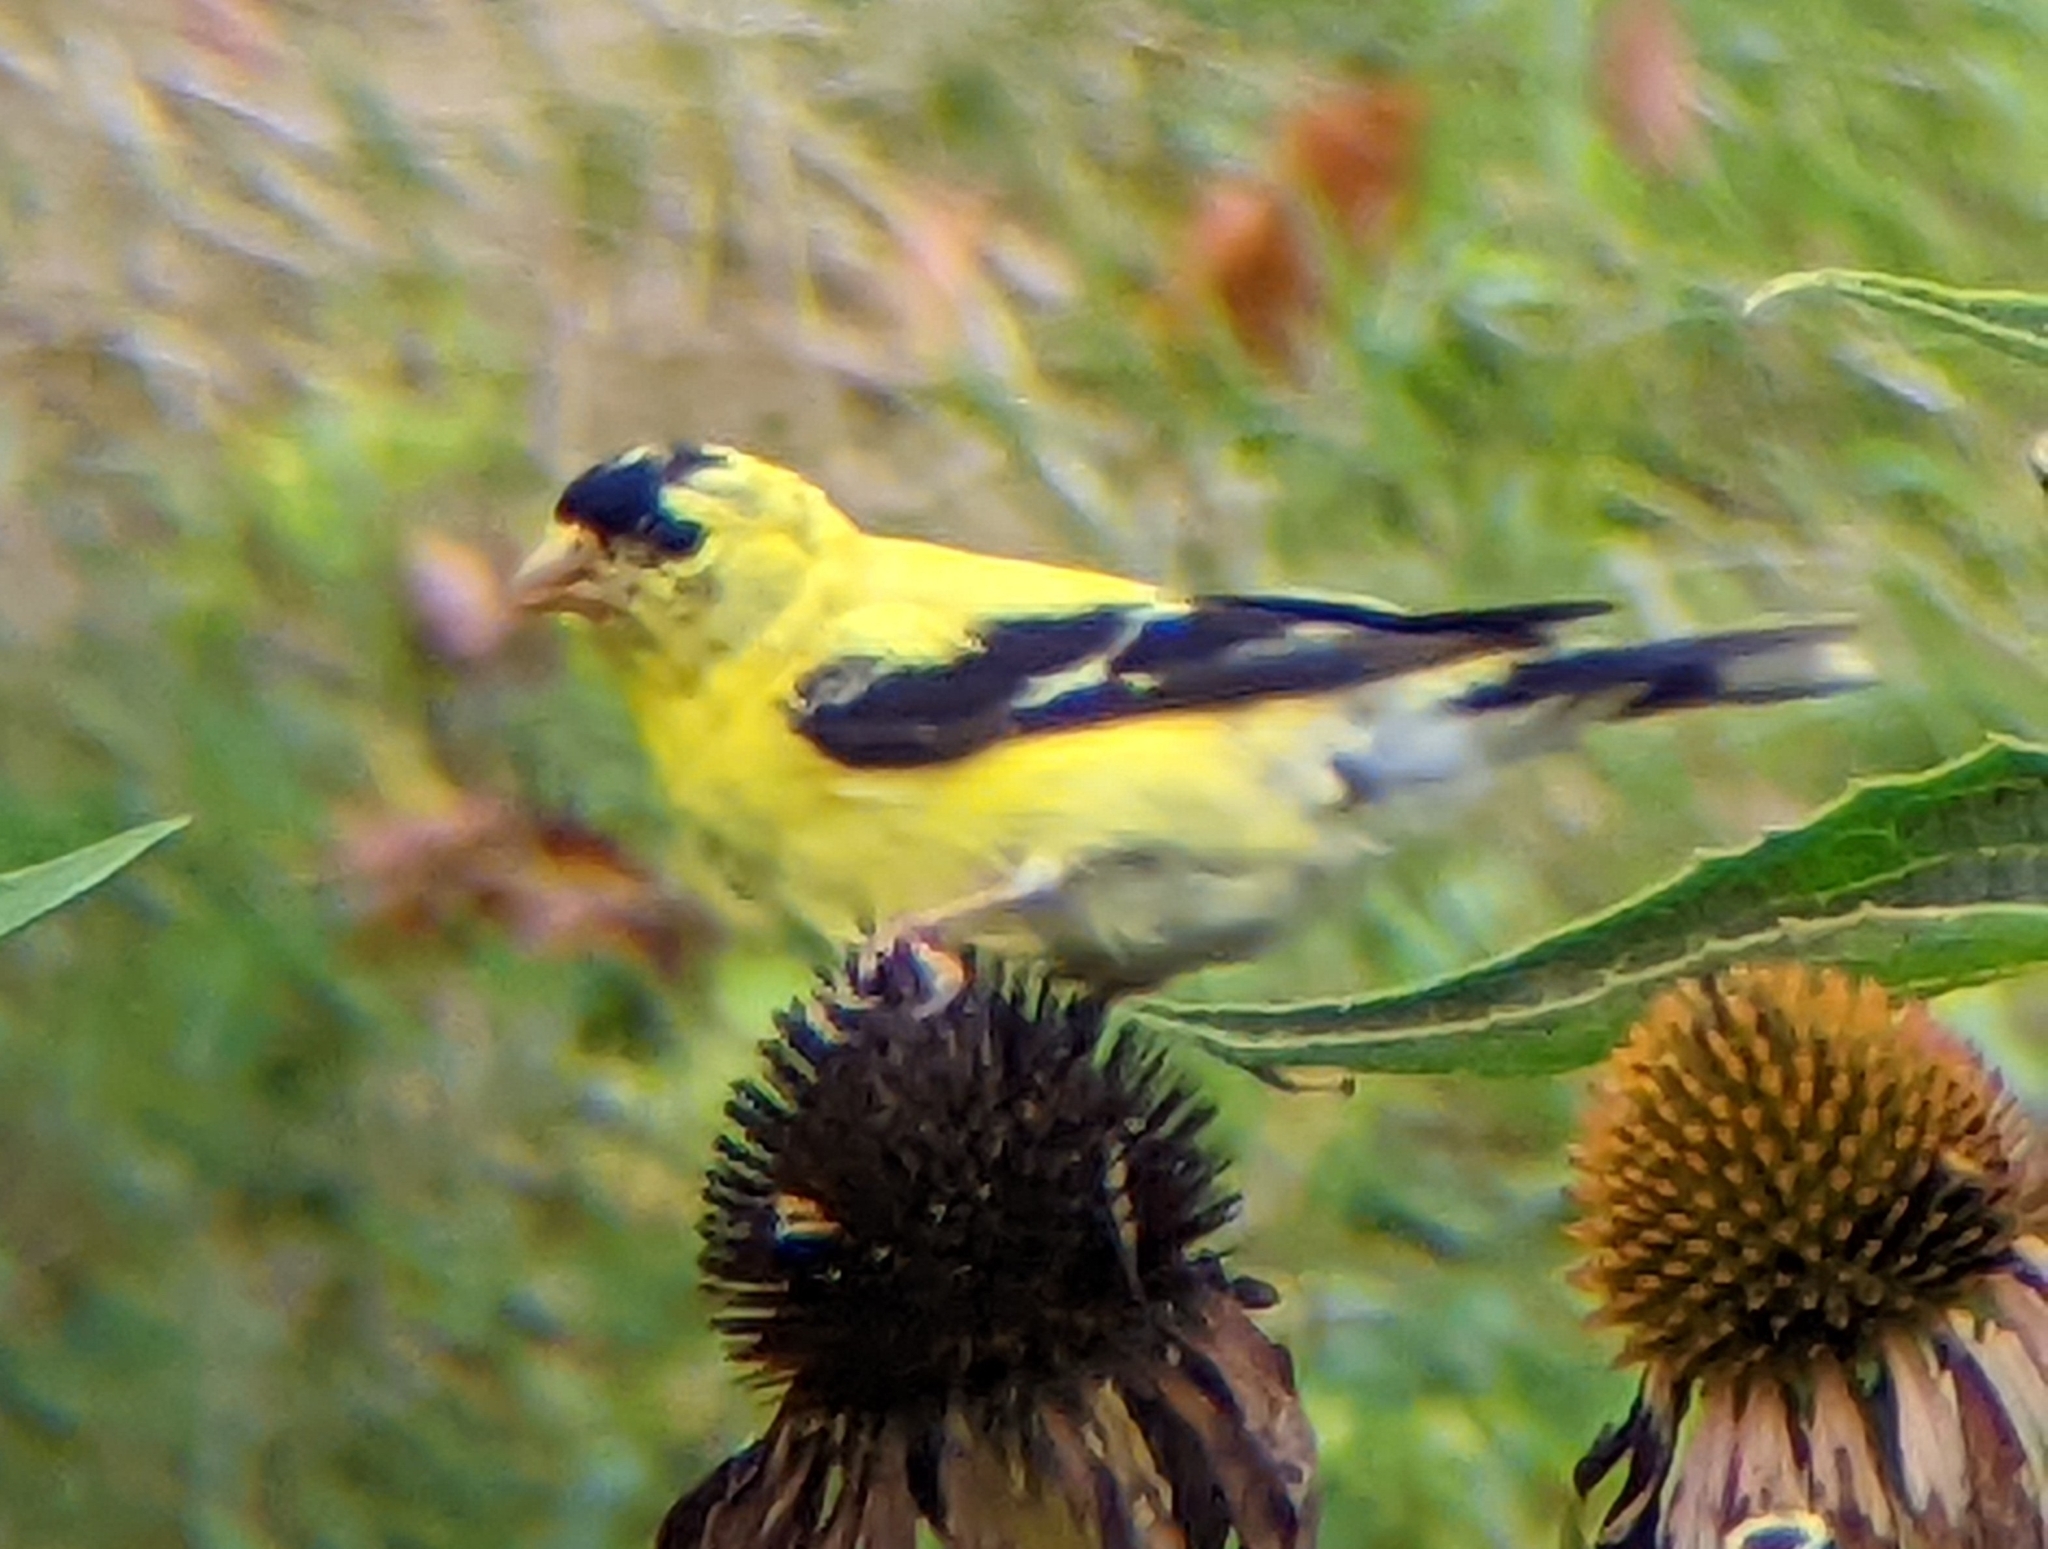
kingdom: Animalia
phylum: Chordata
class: Aves
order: Passeriformes
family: Fringillidae
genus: Spinus
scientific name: Spinus tristis
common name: American goldfinch
